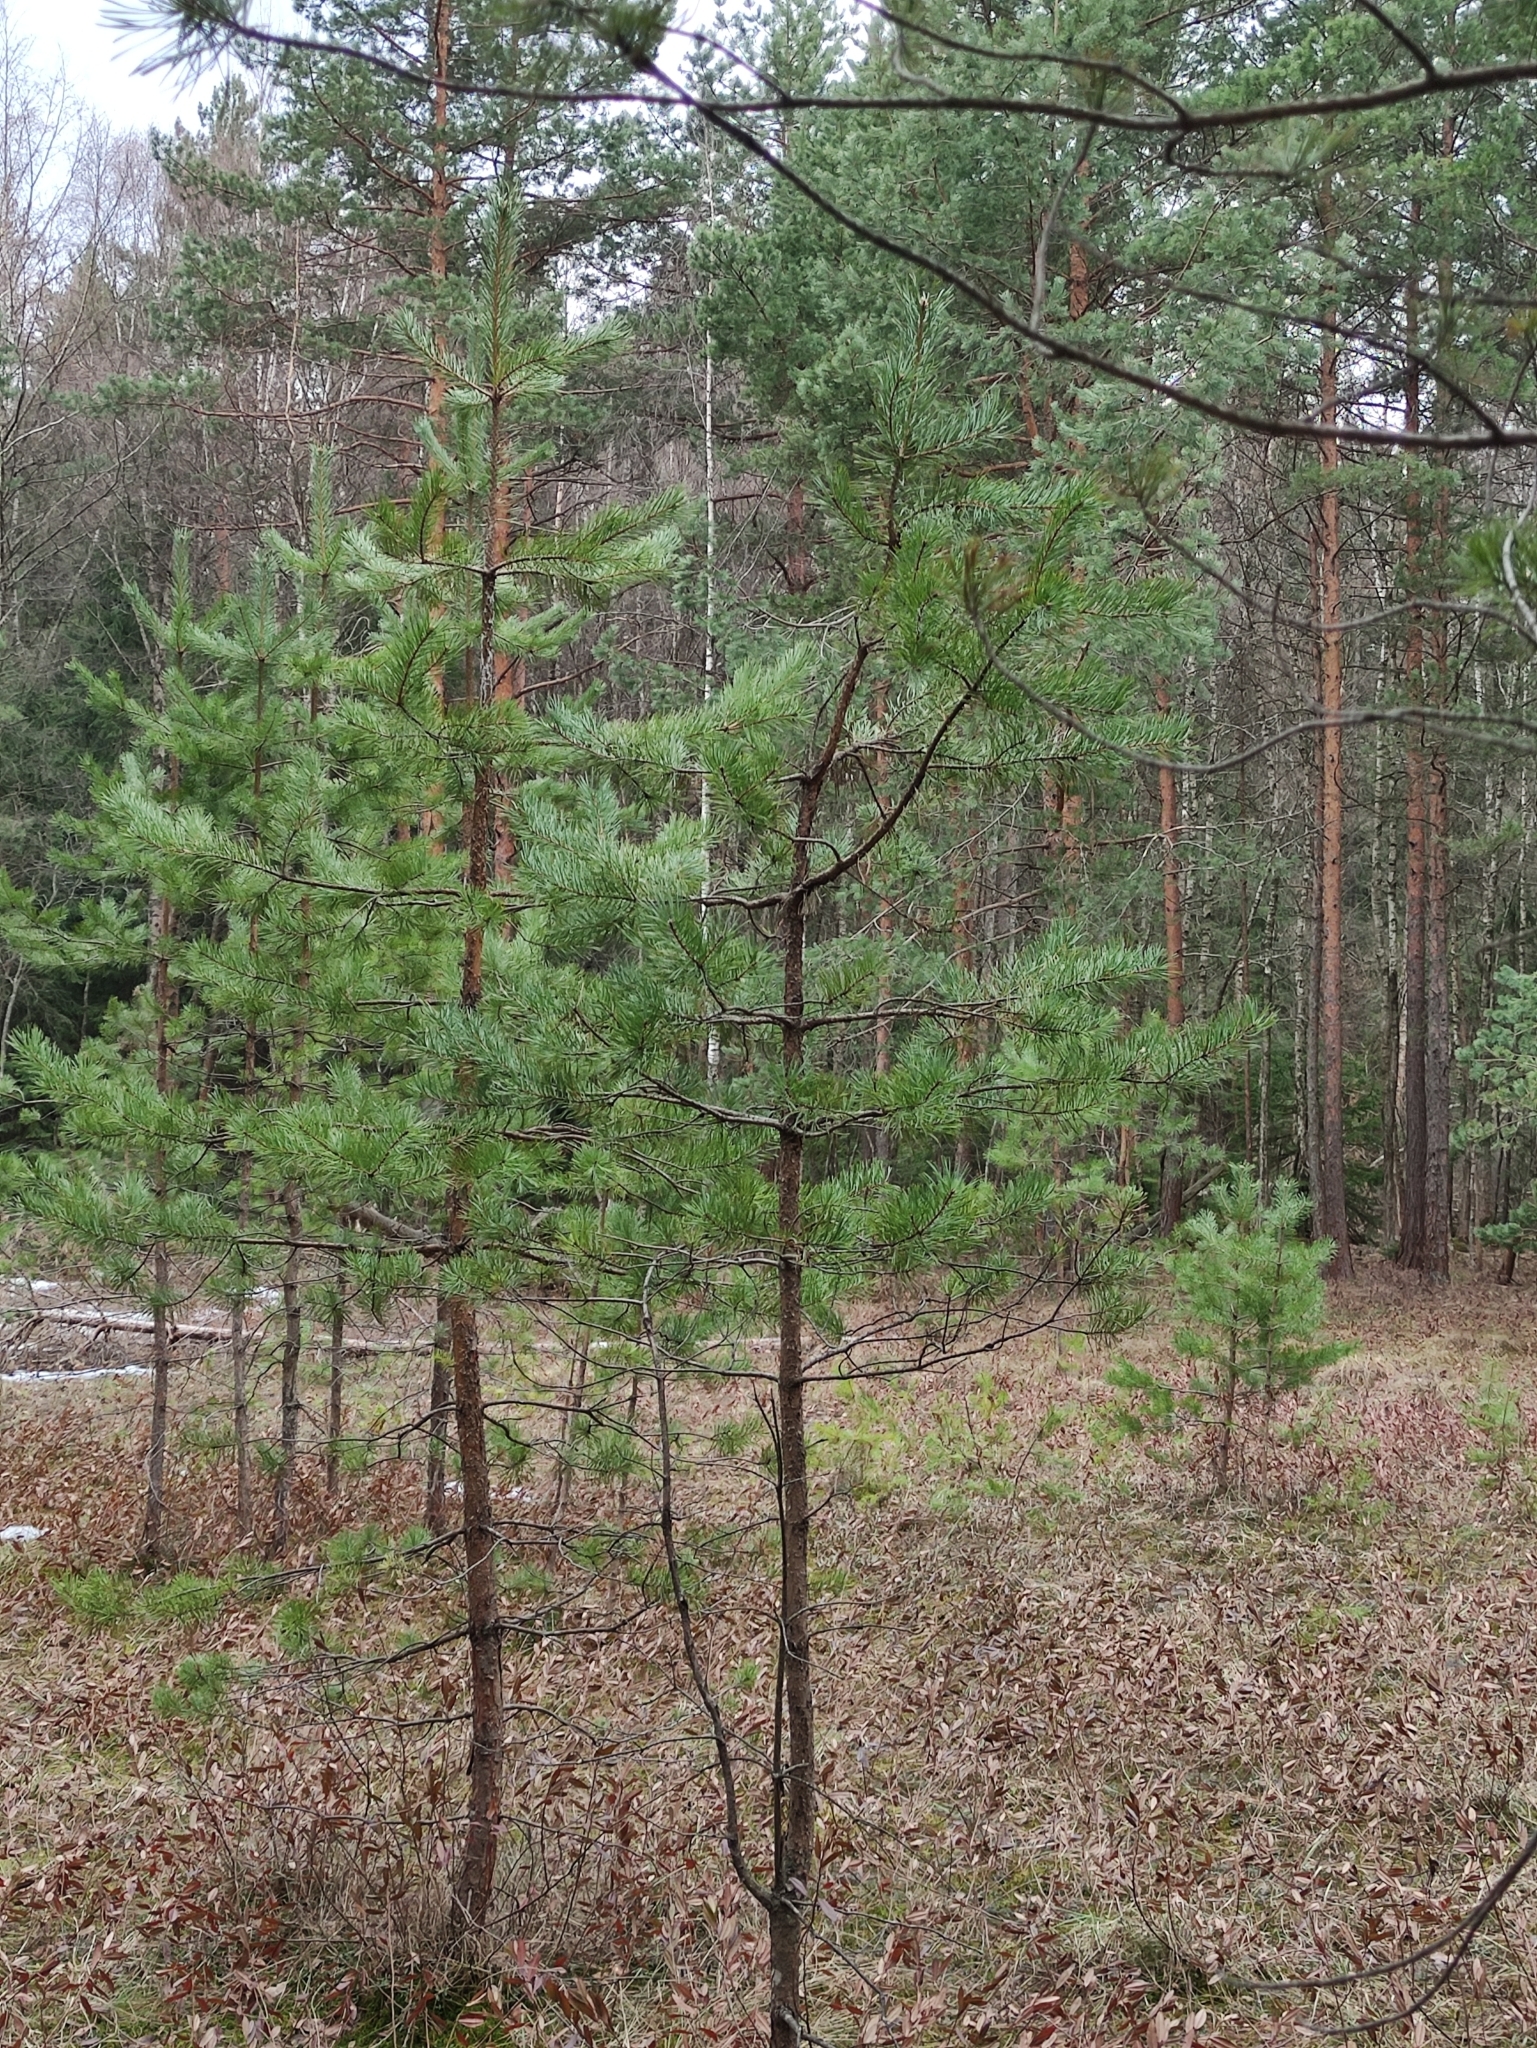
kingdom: Plantae
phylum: Tracheophyta
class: Pinopsida
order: Pinales
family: Pinaceae
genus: Pinus
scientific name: Pinus sylvestris
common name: Scots pine
